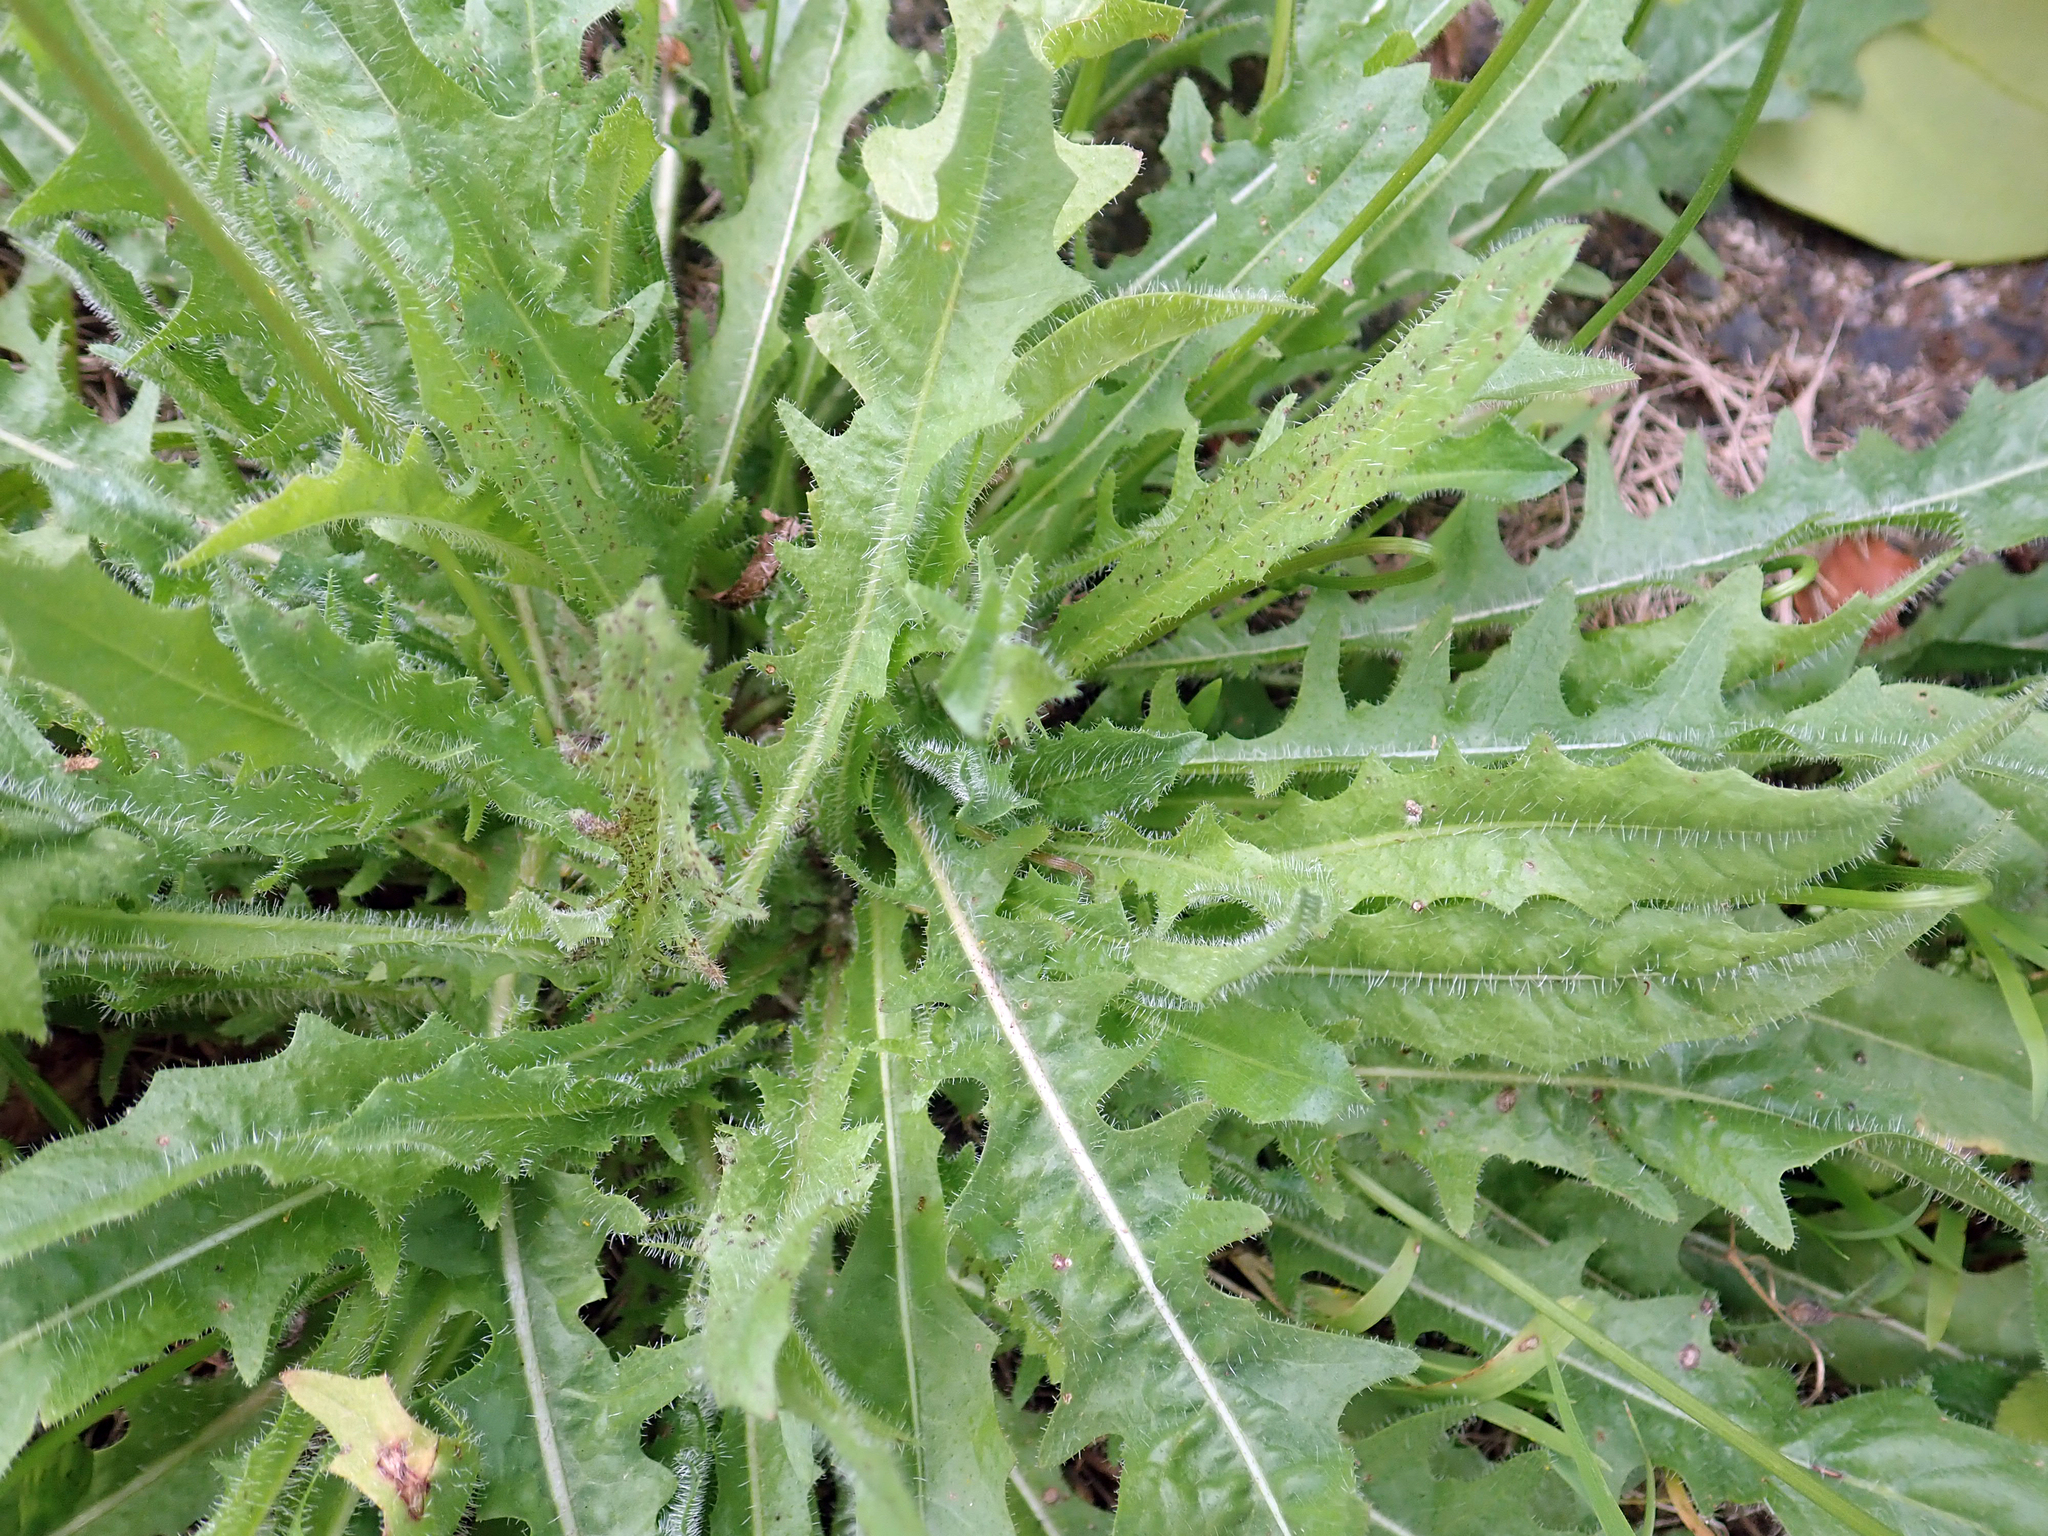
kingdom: Plantae
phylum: Tracheophyta
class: Magnoliopsida
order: Asterales
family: Asteraceae
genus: Thrincia
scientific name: Thrincia saxatilis
